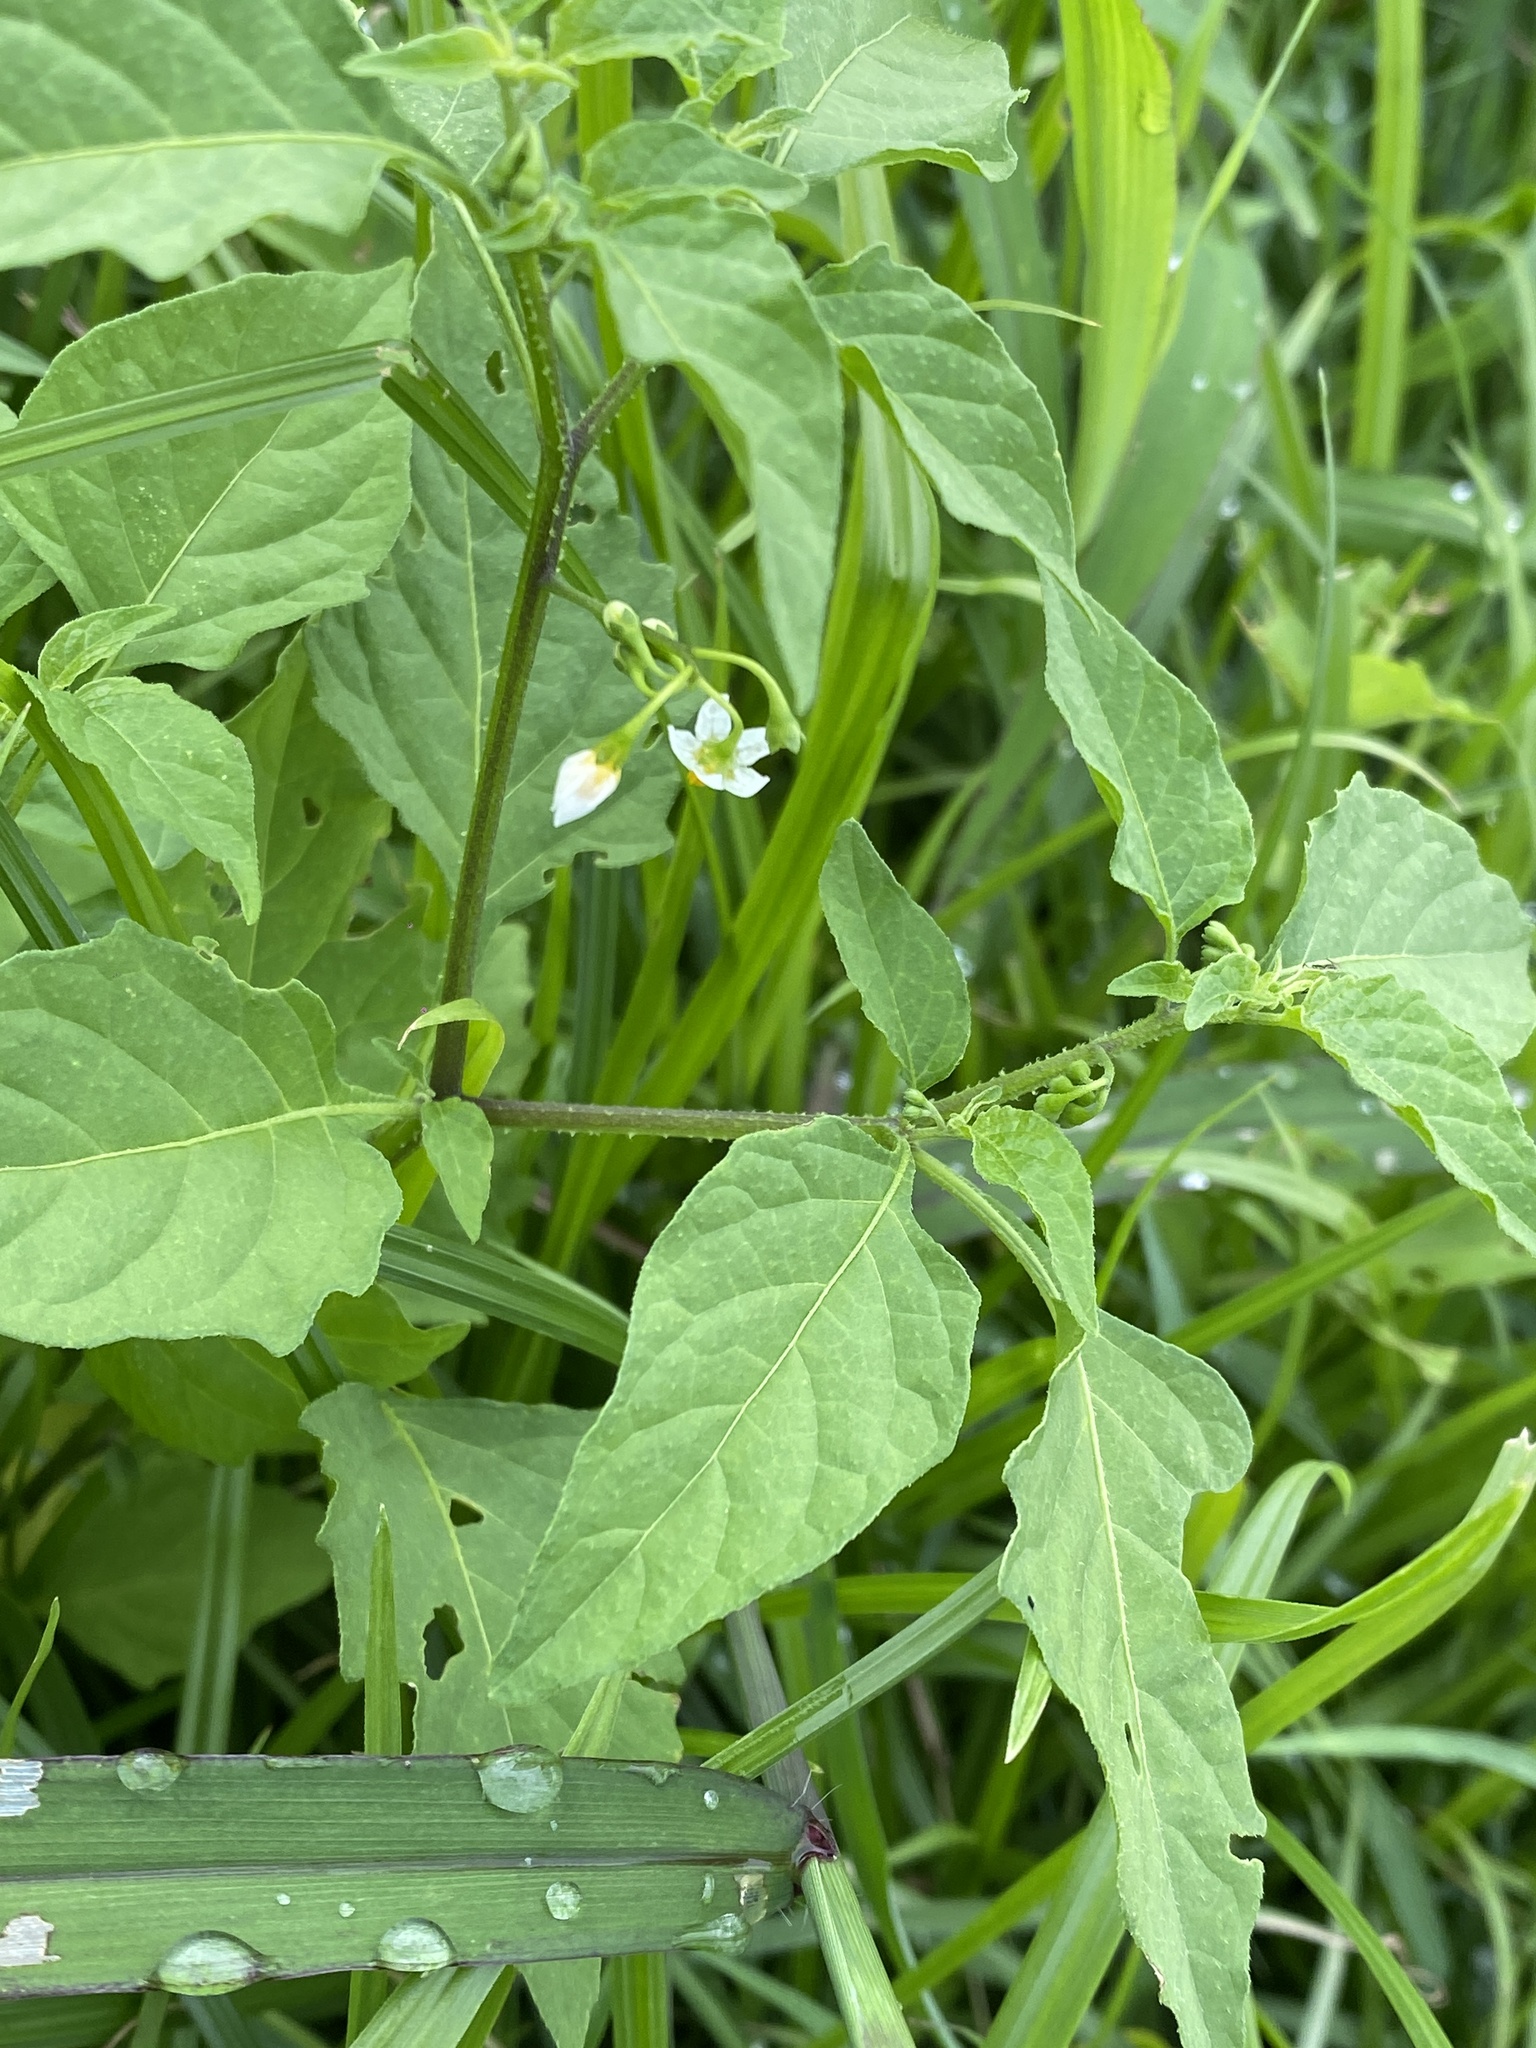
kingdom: Plantae
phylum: Tracheophyta
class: Magnoliopsida
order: Solanales
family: Solanaceae
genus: Solanum
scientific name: Solanum americanum
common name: American black nightshade
